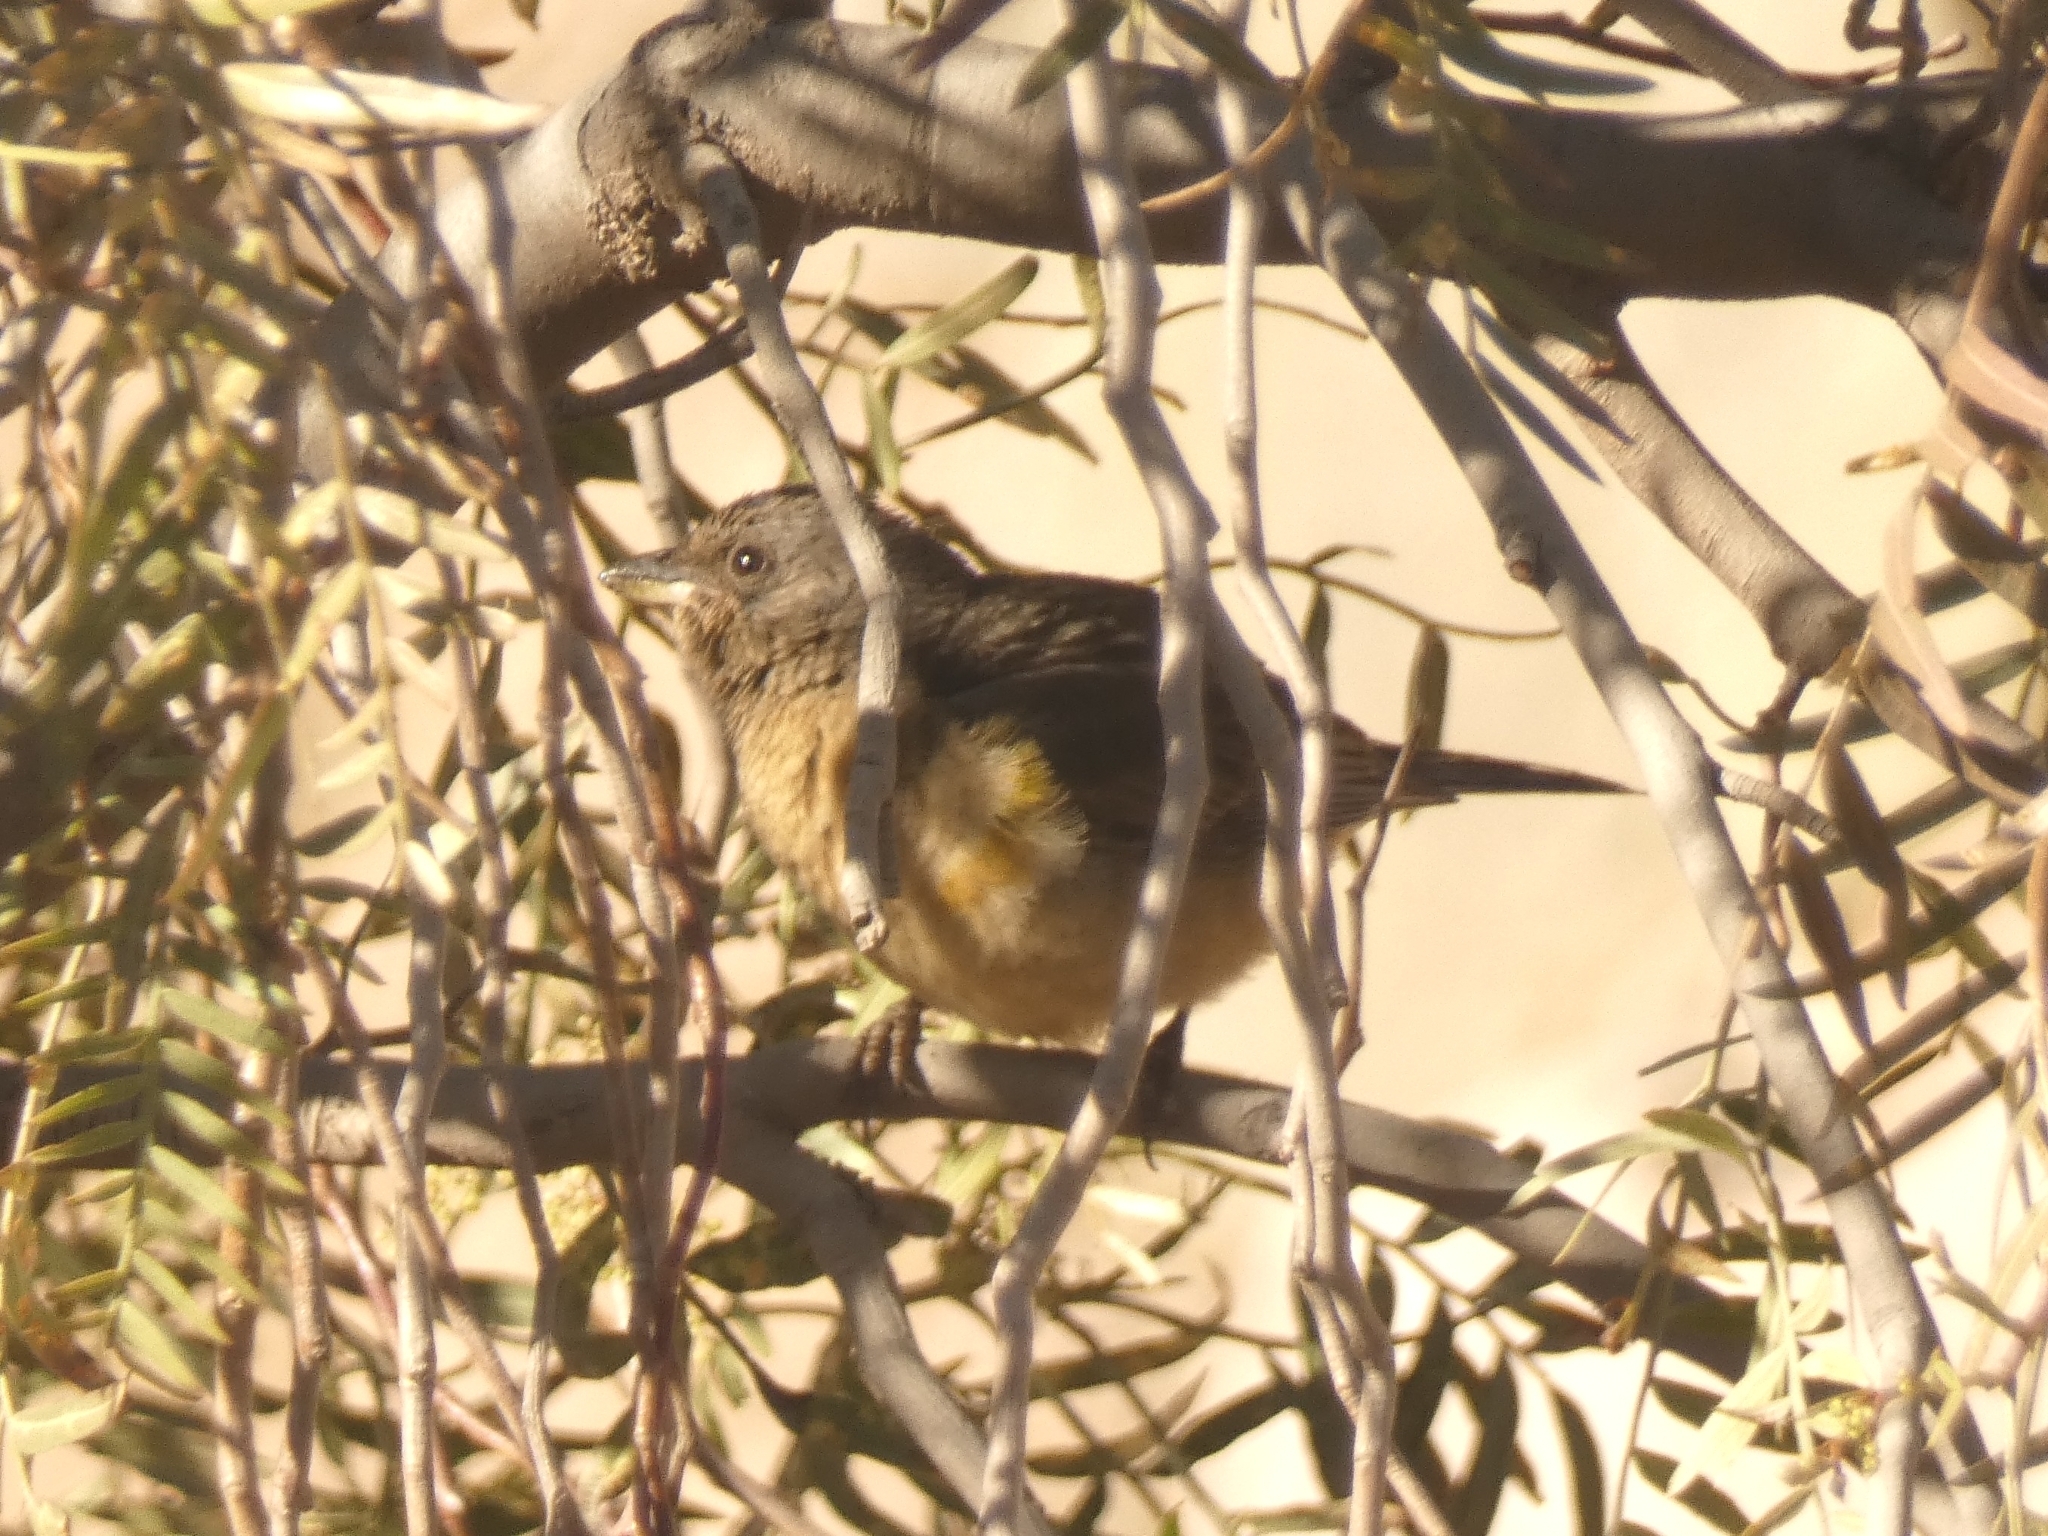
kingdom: Animalia
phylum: Chordata
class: Aves
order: Passeriformes
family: Thraupidae
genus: Rauenia
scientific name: Rauenia bonariensis
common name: Blue-and-yellow tanager
